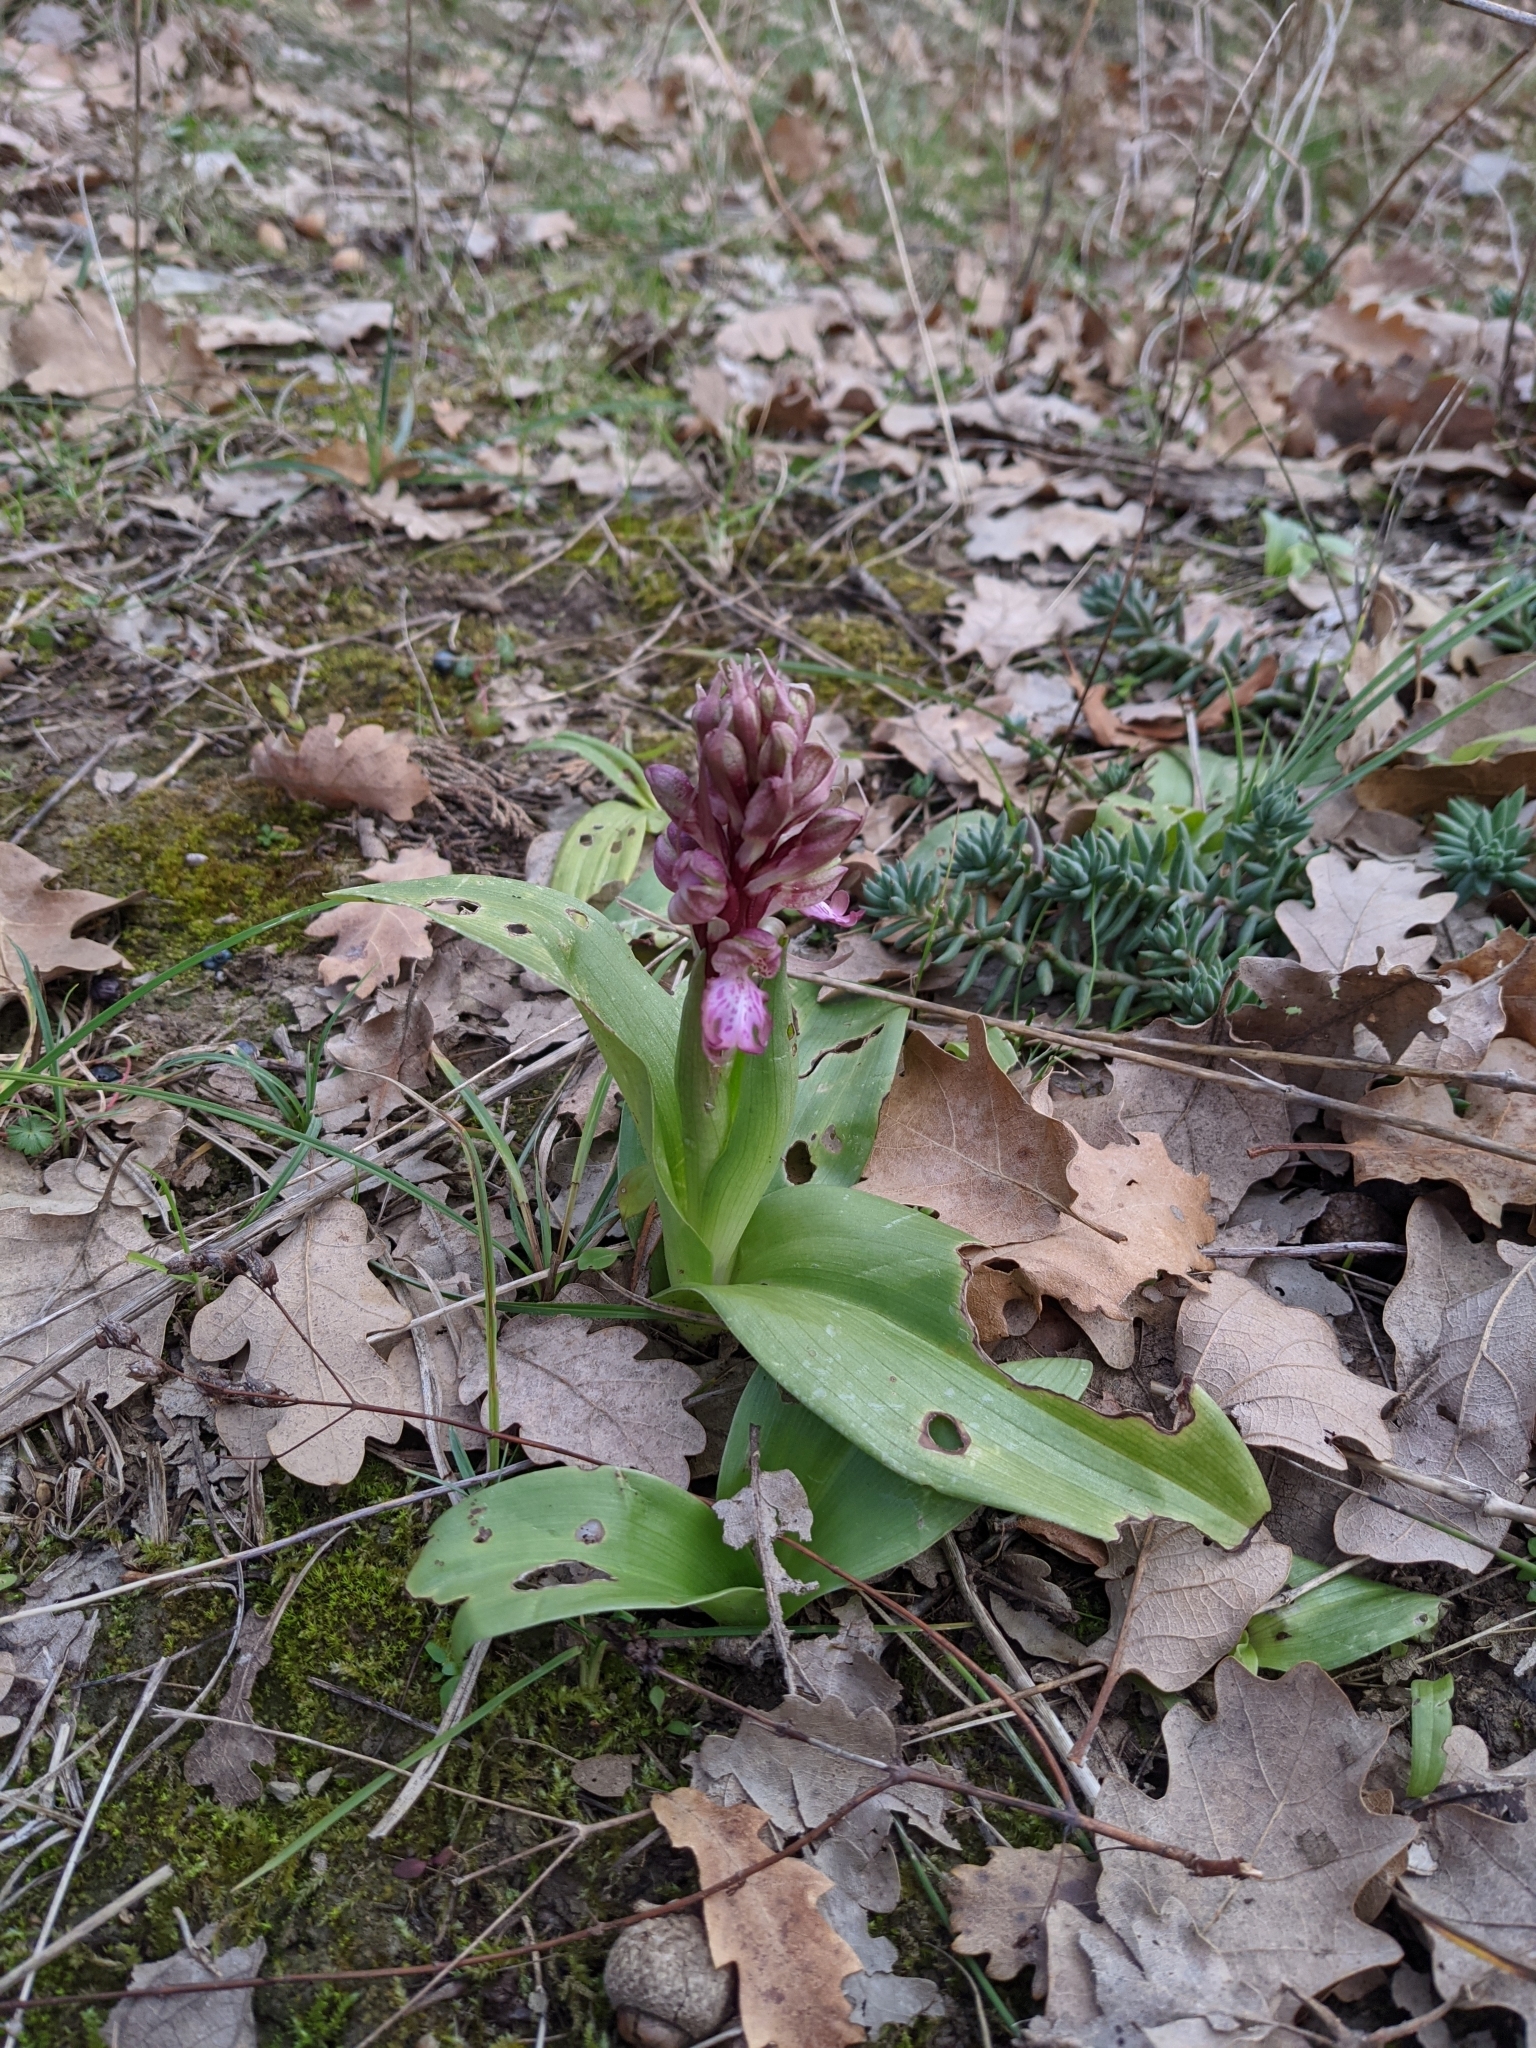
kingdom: Plantae
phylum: Tracheophyta
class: Liliopsida
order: Asparagales
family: Orchidaceae
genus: Himantoglossum
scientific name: Himantoglossum robertianum
